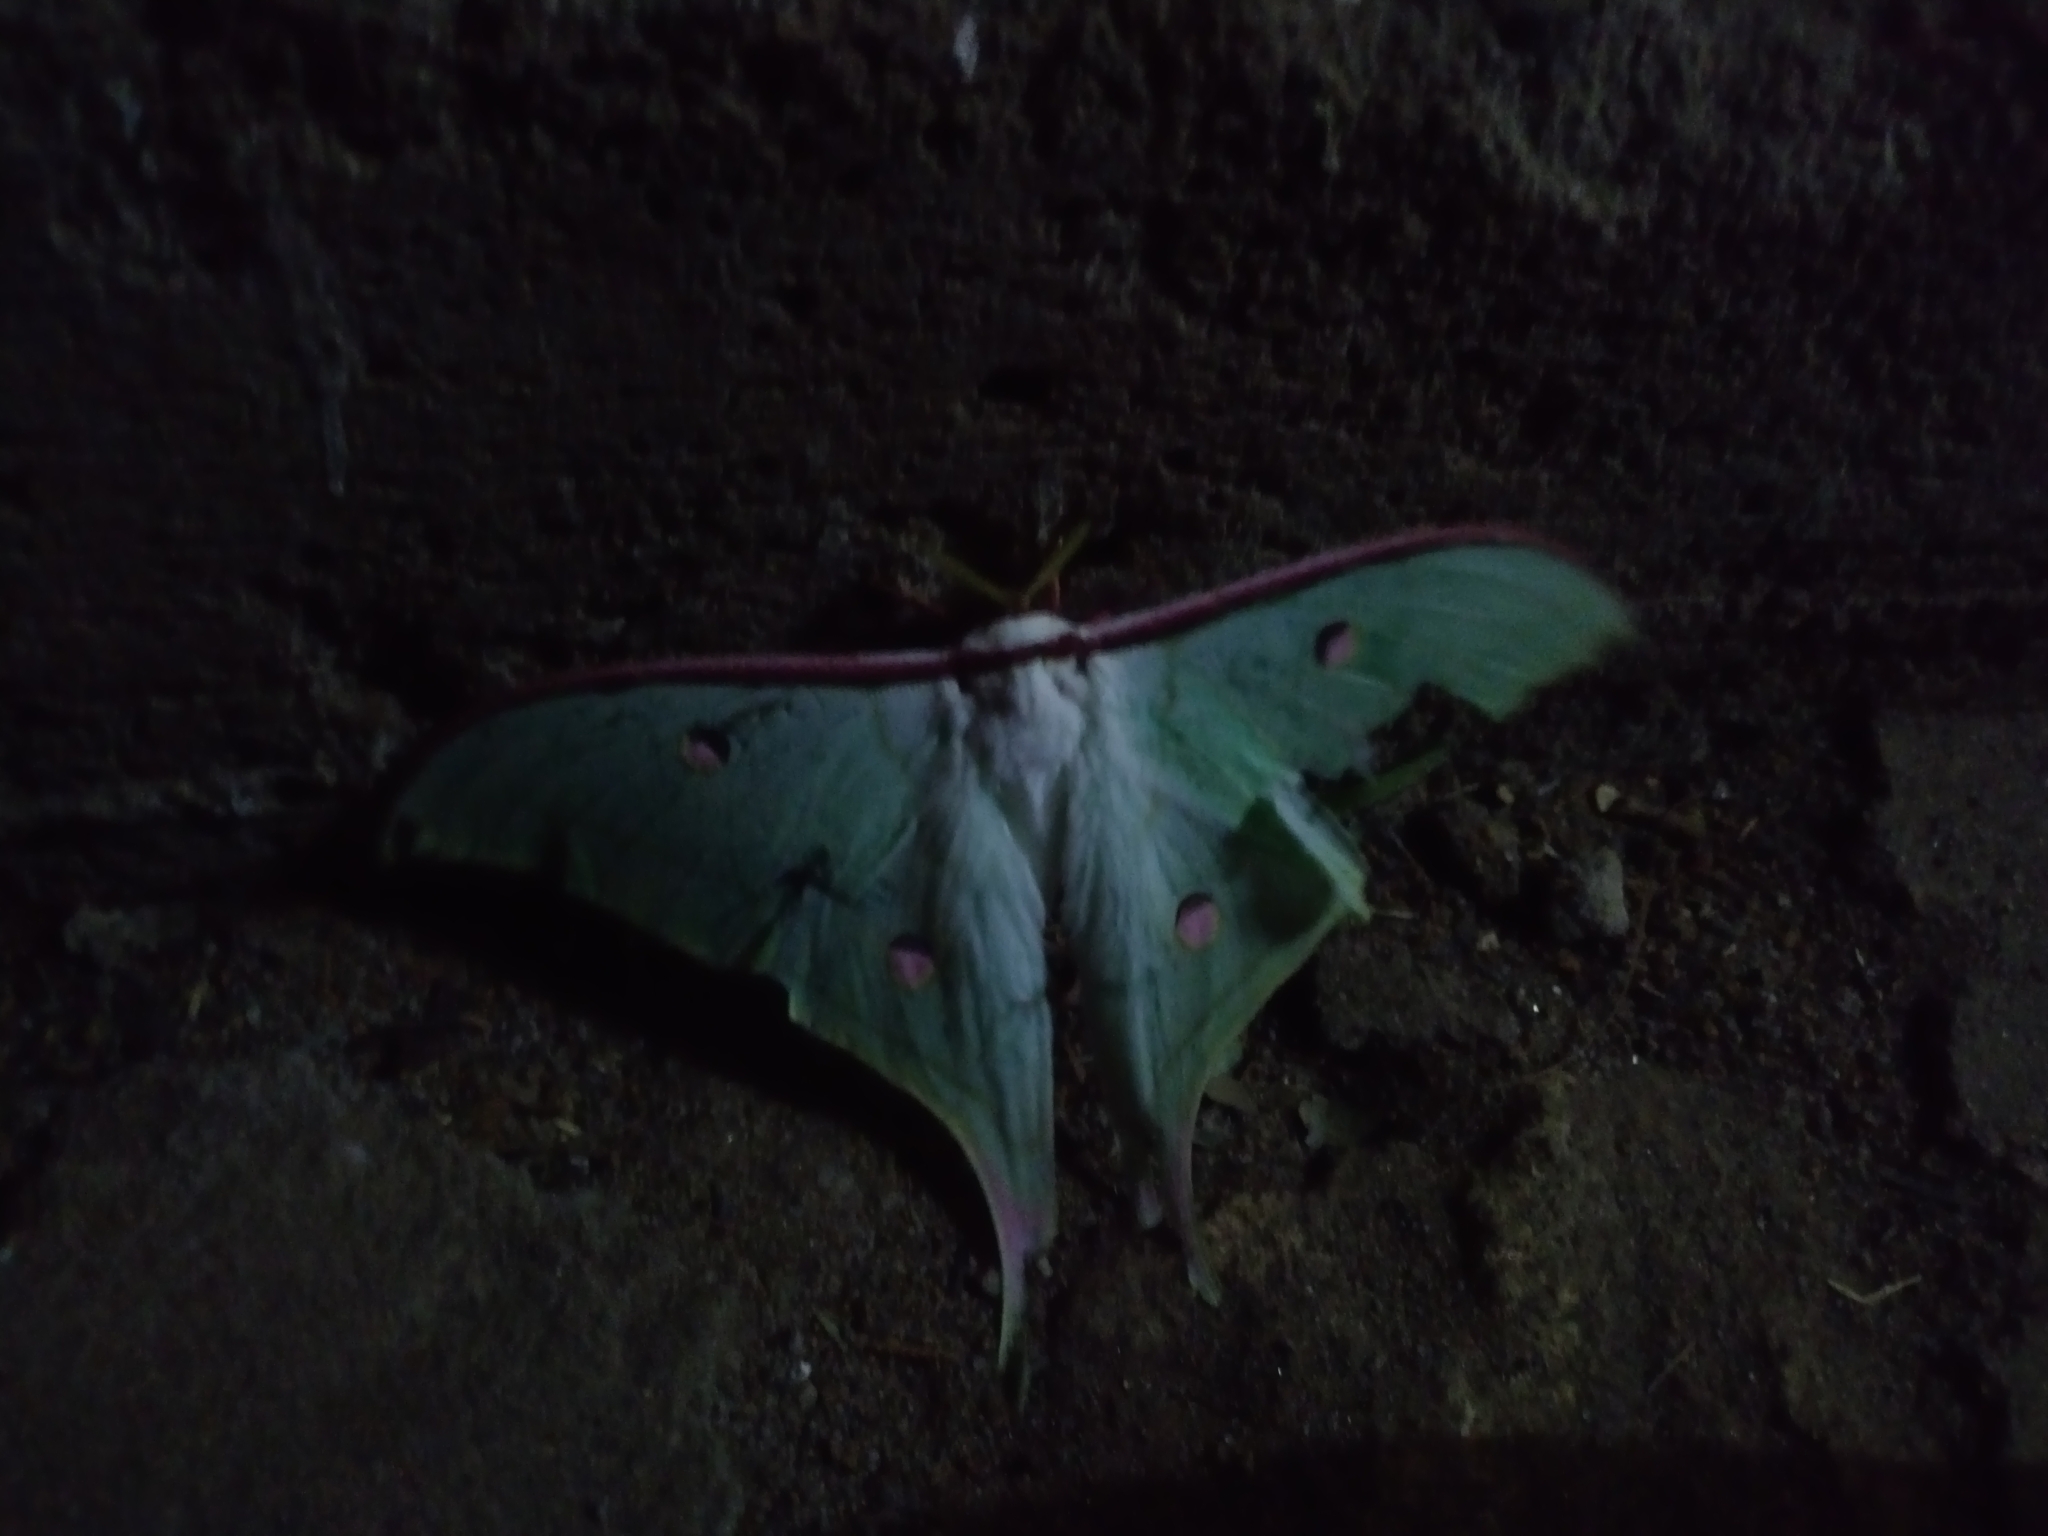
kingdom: Animalia
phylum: Arthropoda
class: Insecta
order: Lepidoptera
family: Saturniidae
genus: Actias
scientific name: Actias selene
